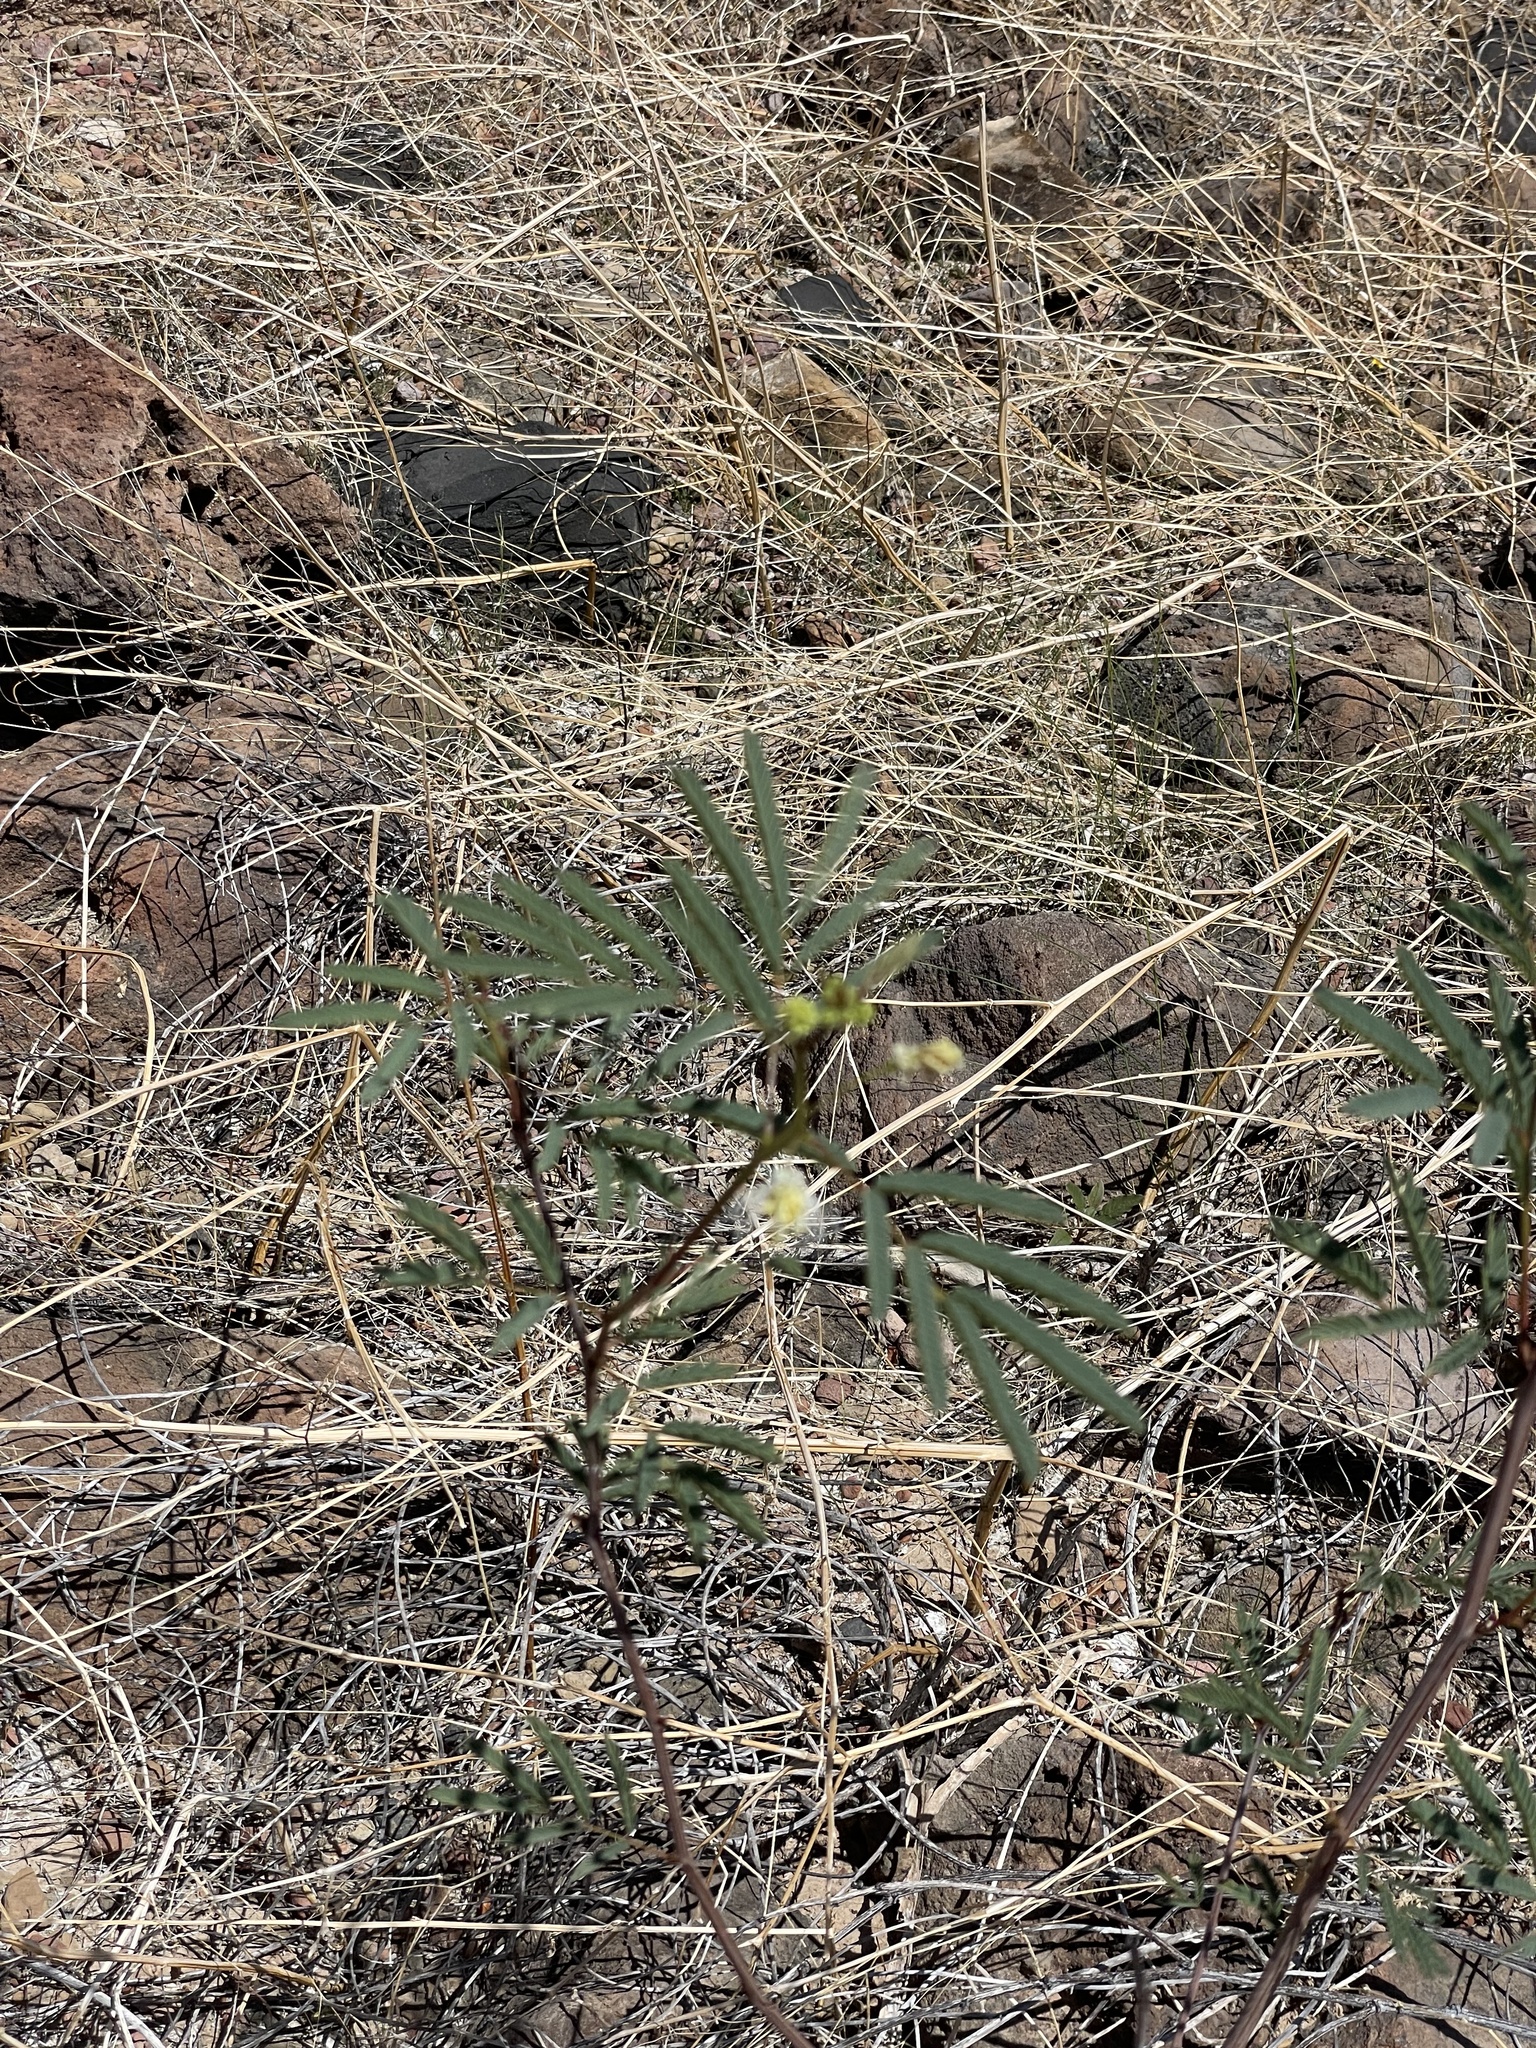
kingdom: Plantae
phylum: Tracheophyta
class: Magnoliopsida
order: Fabales
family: Fabaceae
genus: Desmanthus
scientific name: Desmanthus fruticosus
